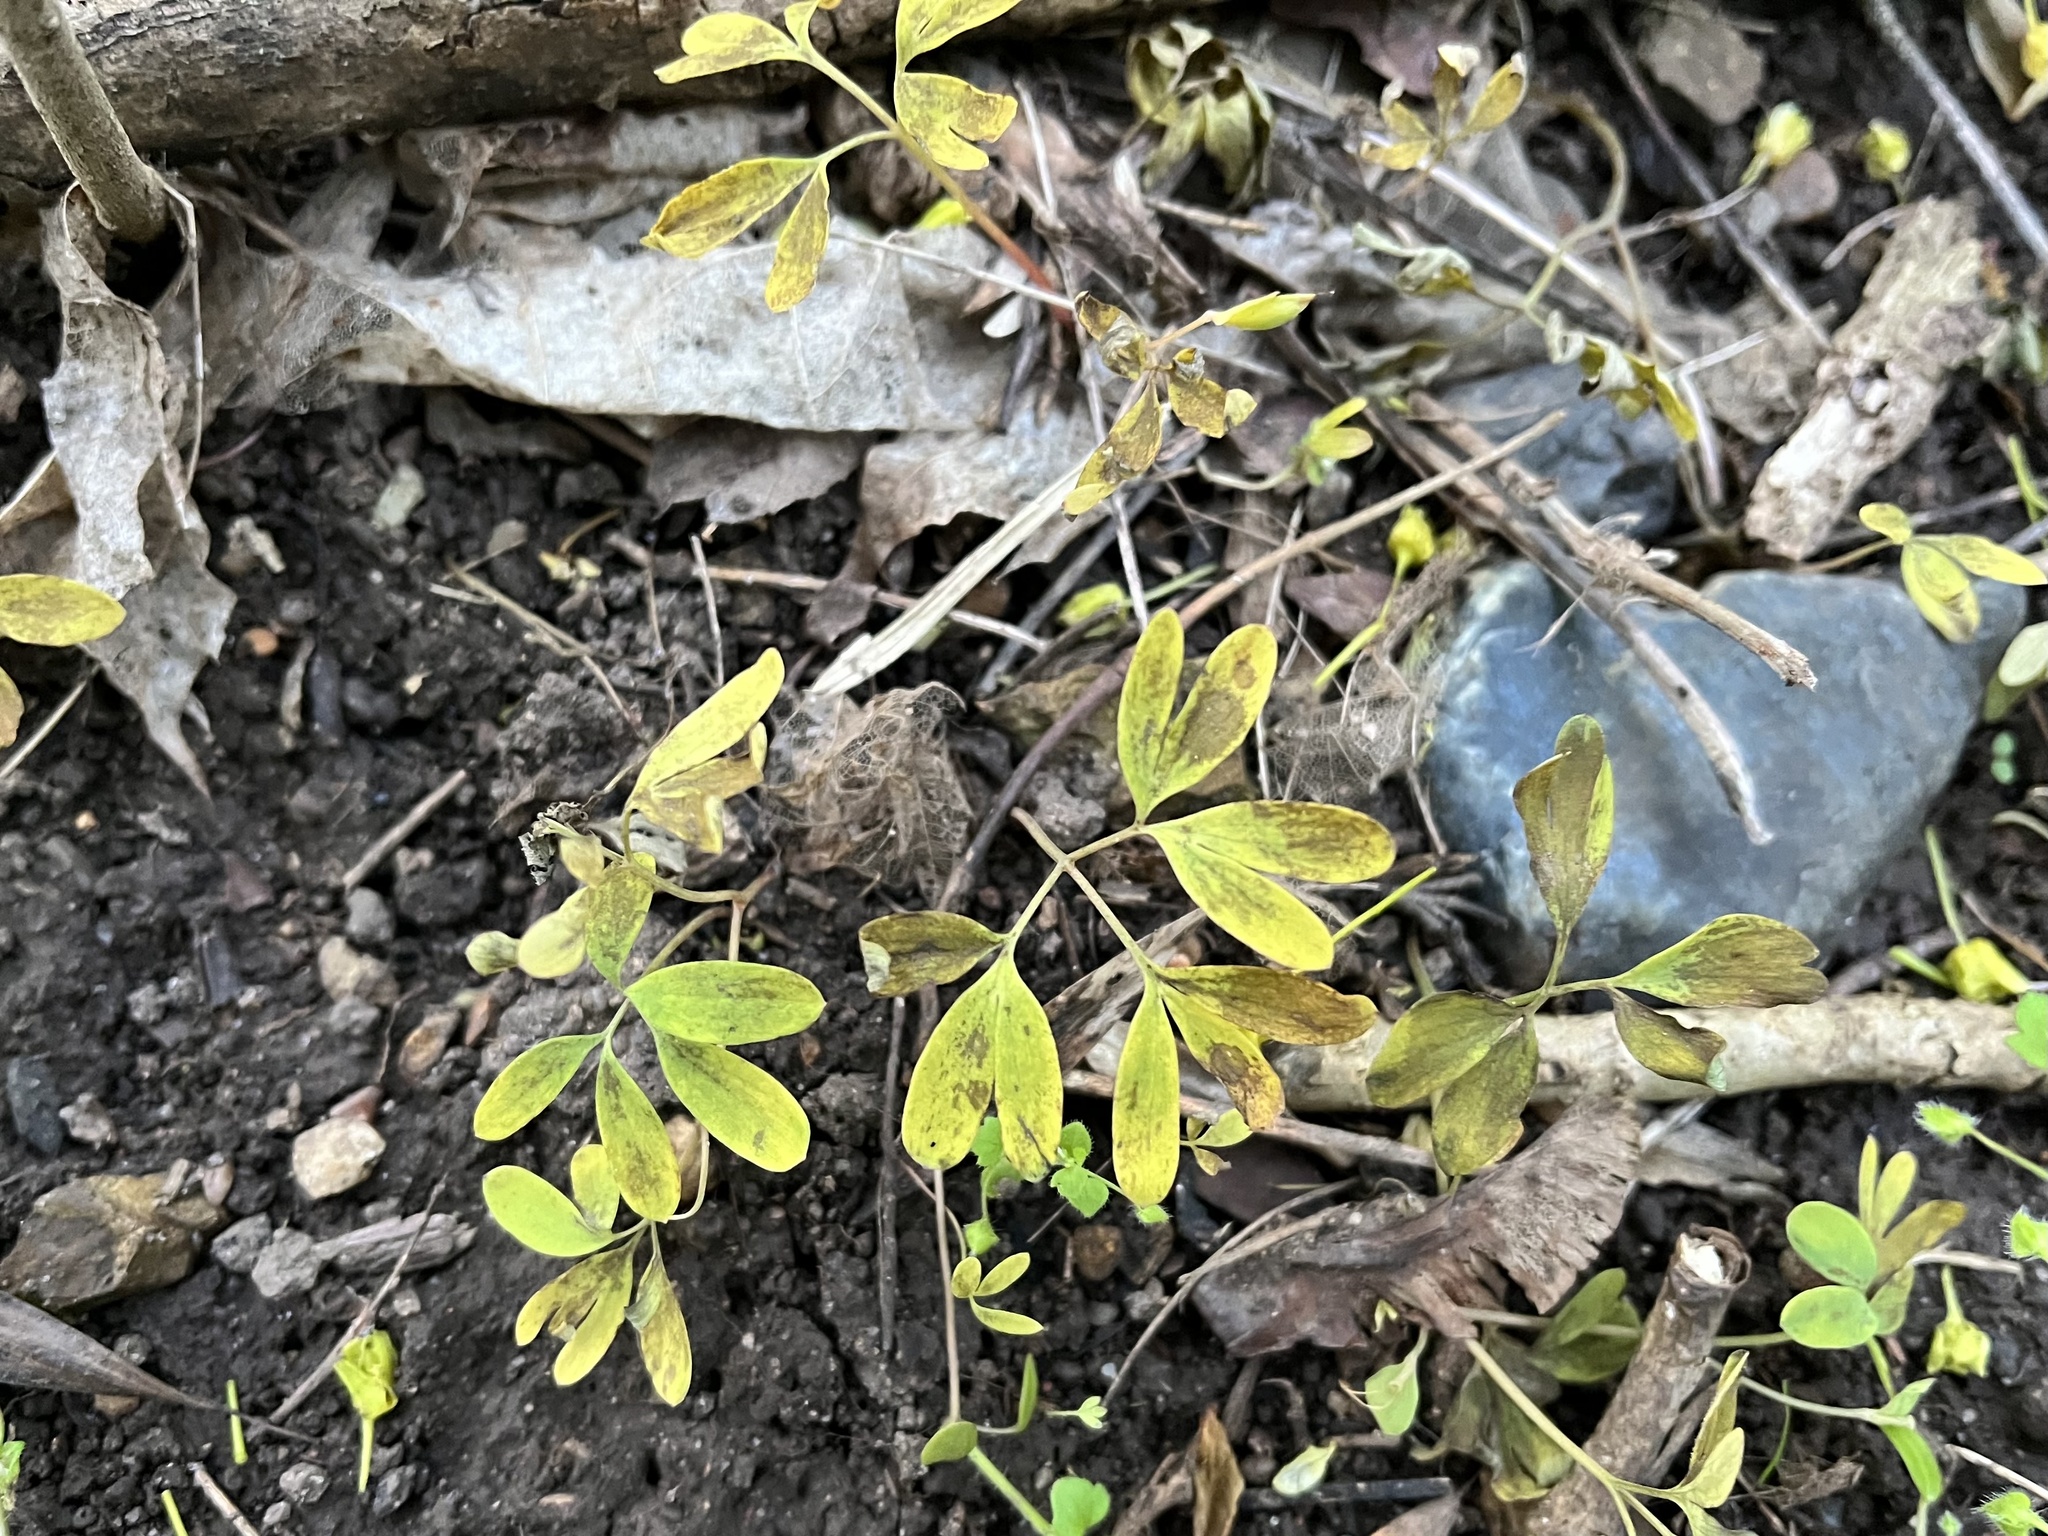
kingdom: Plantae
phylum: Tracheophyta
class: Magnoliopsida
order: Ranunculales
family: Papaveraceae
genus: Corydalis
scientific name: Corydalis intermedia
